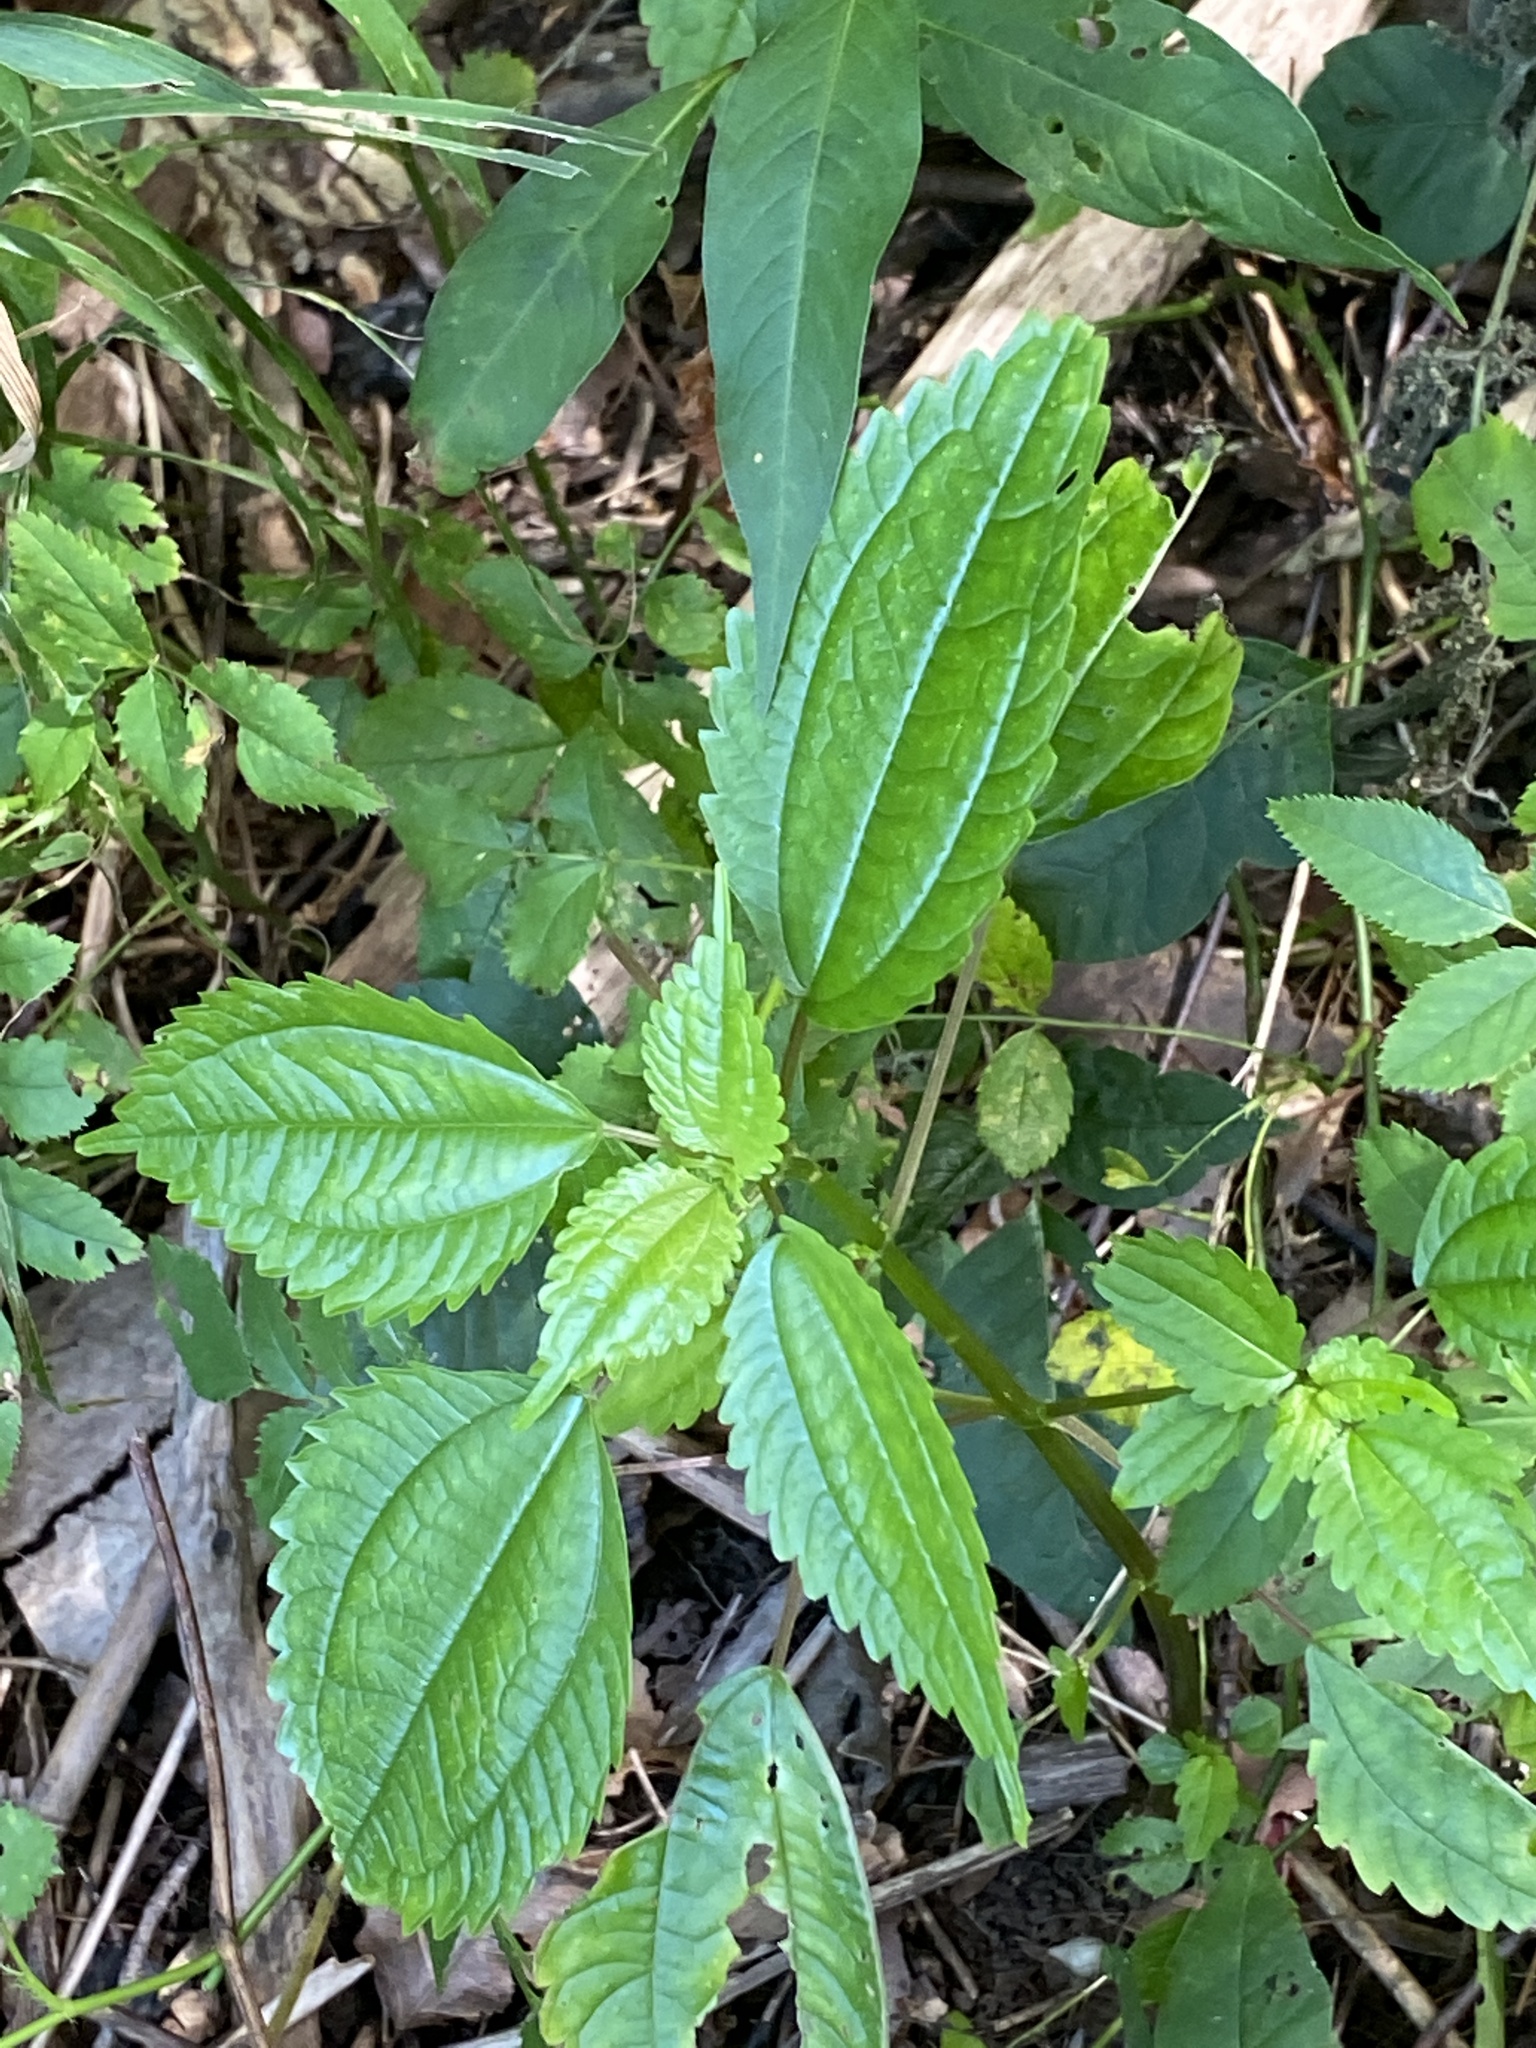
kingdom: Plantae
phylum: Tracheophyta
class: Magnoliopsida
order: Rosales
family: Urticaceae
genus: Pilea
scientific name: Pilea pumila
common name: Clearweed
